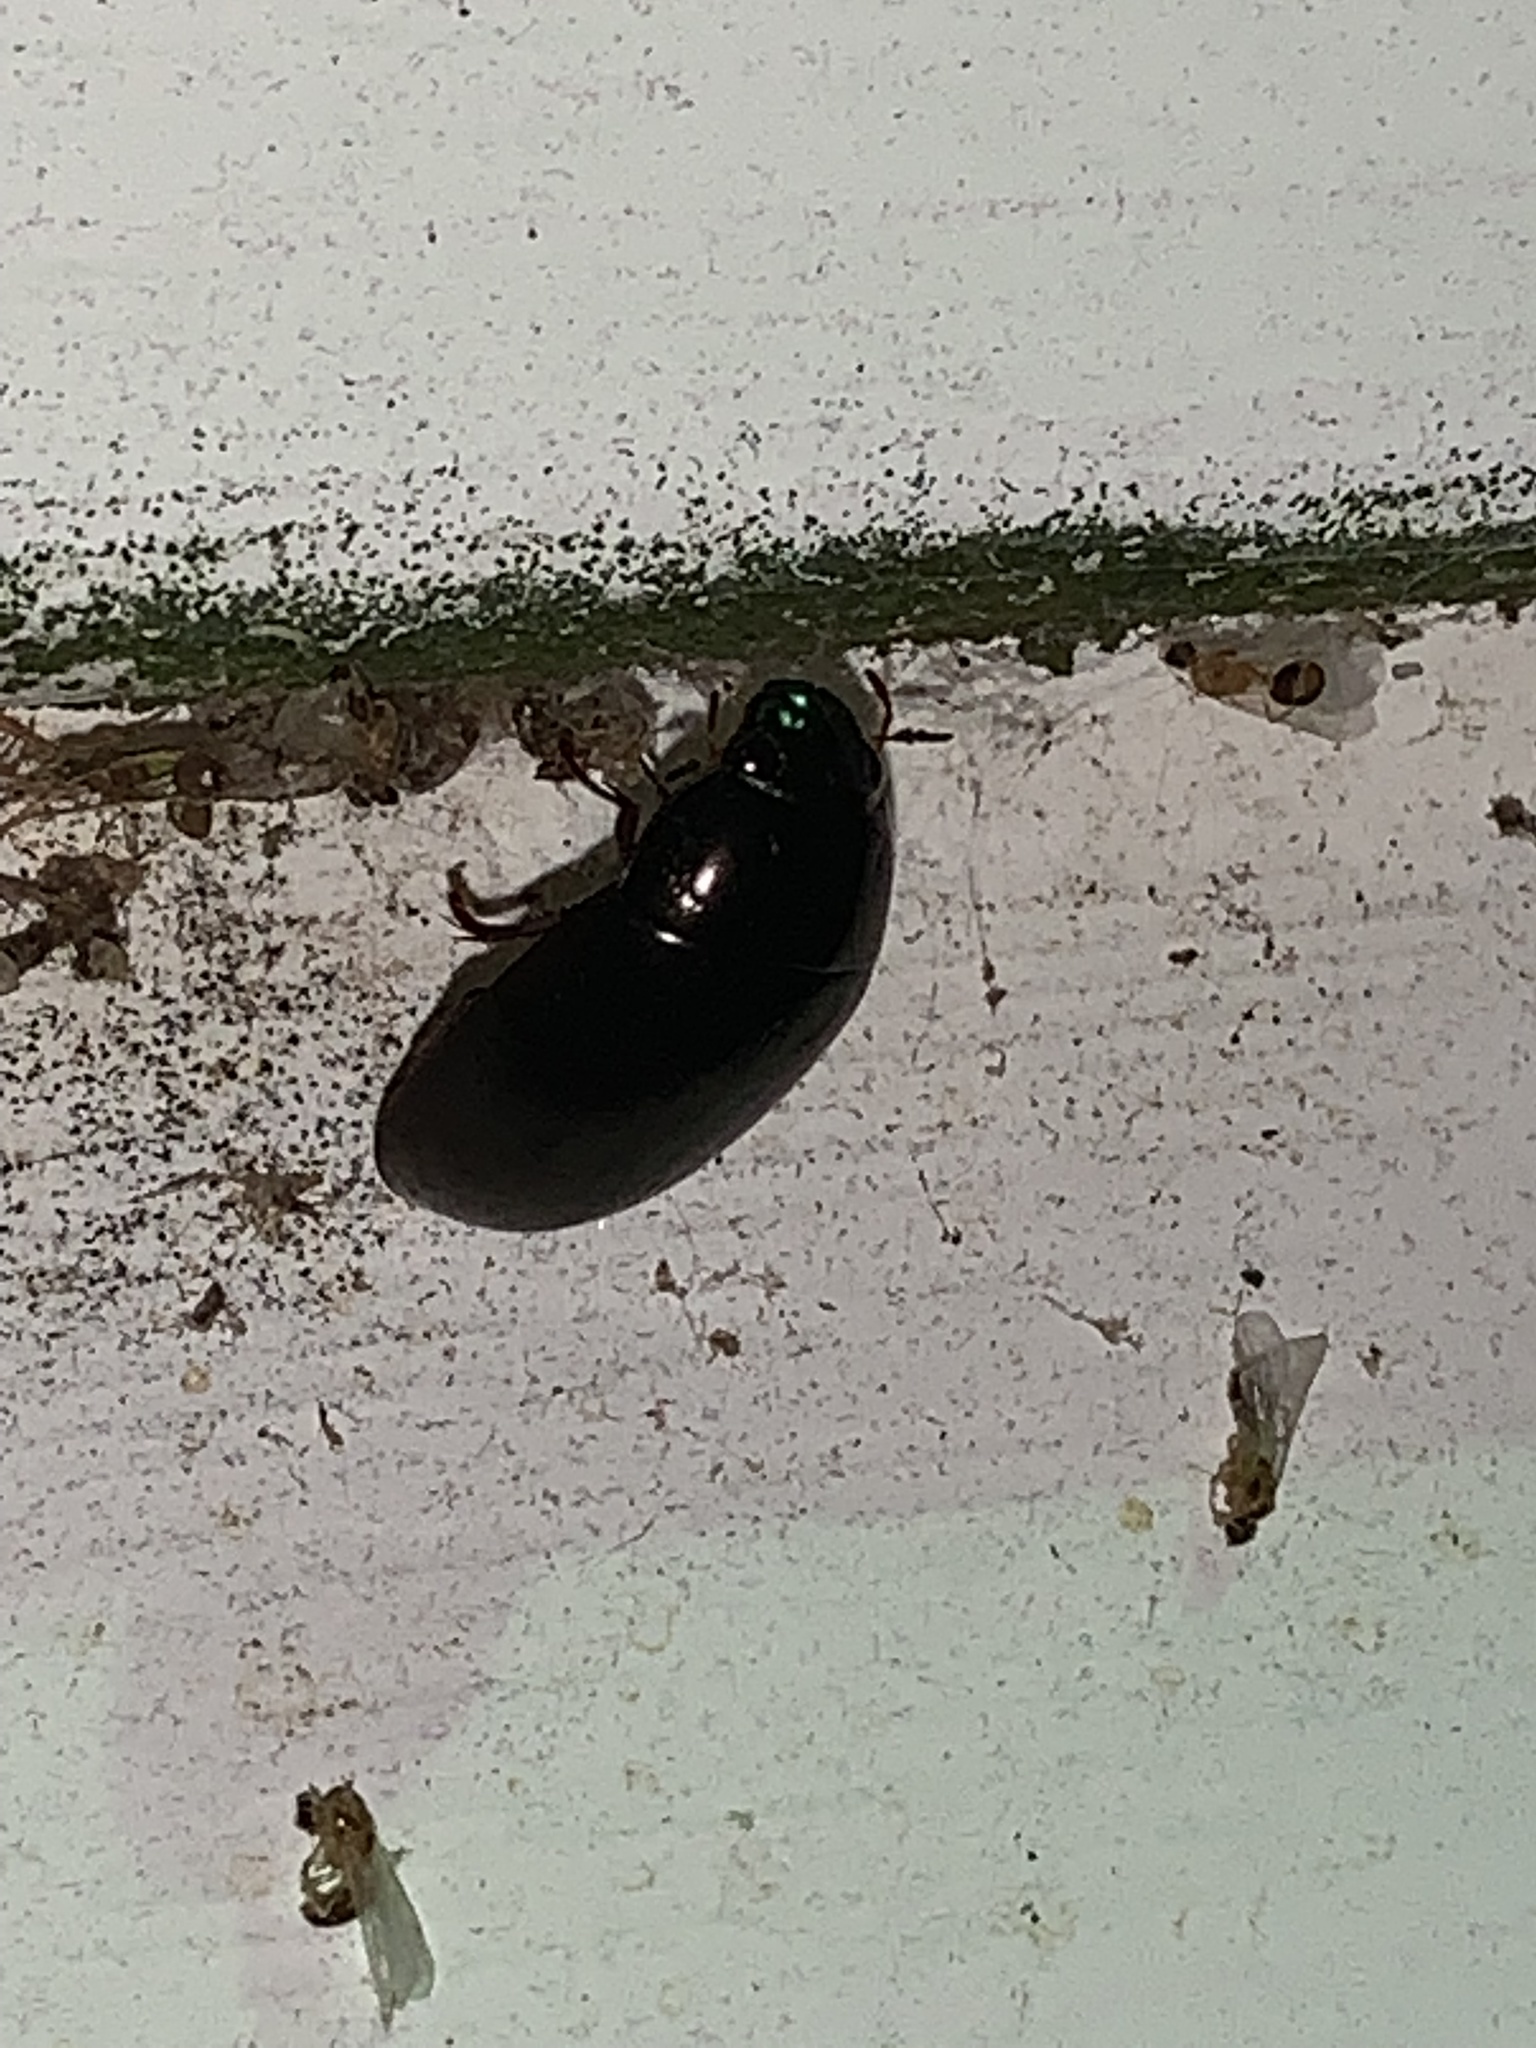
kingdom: Animalia
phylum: Arthropoda
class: Insecta
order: Coleoptera
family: Hydrophilidae
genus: Hydrochara
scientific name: Hydrochara
